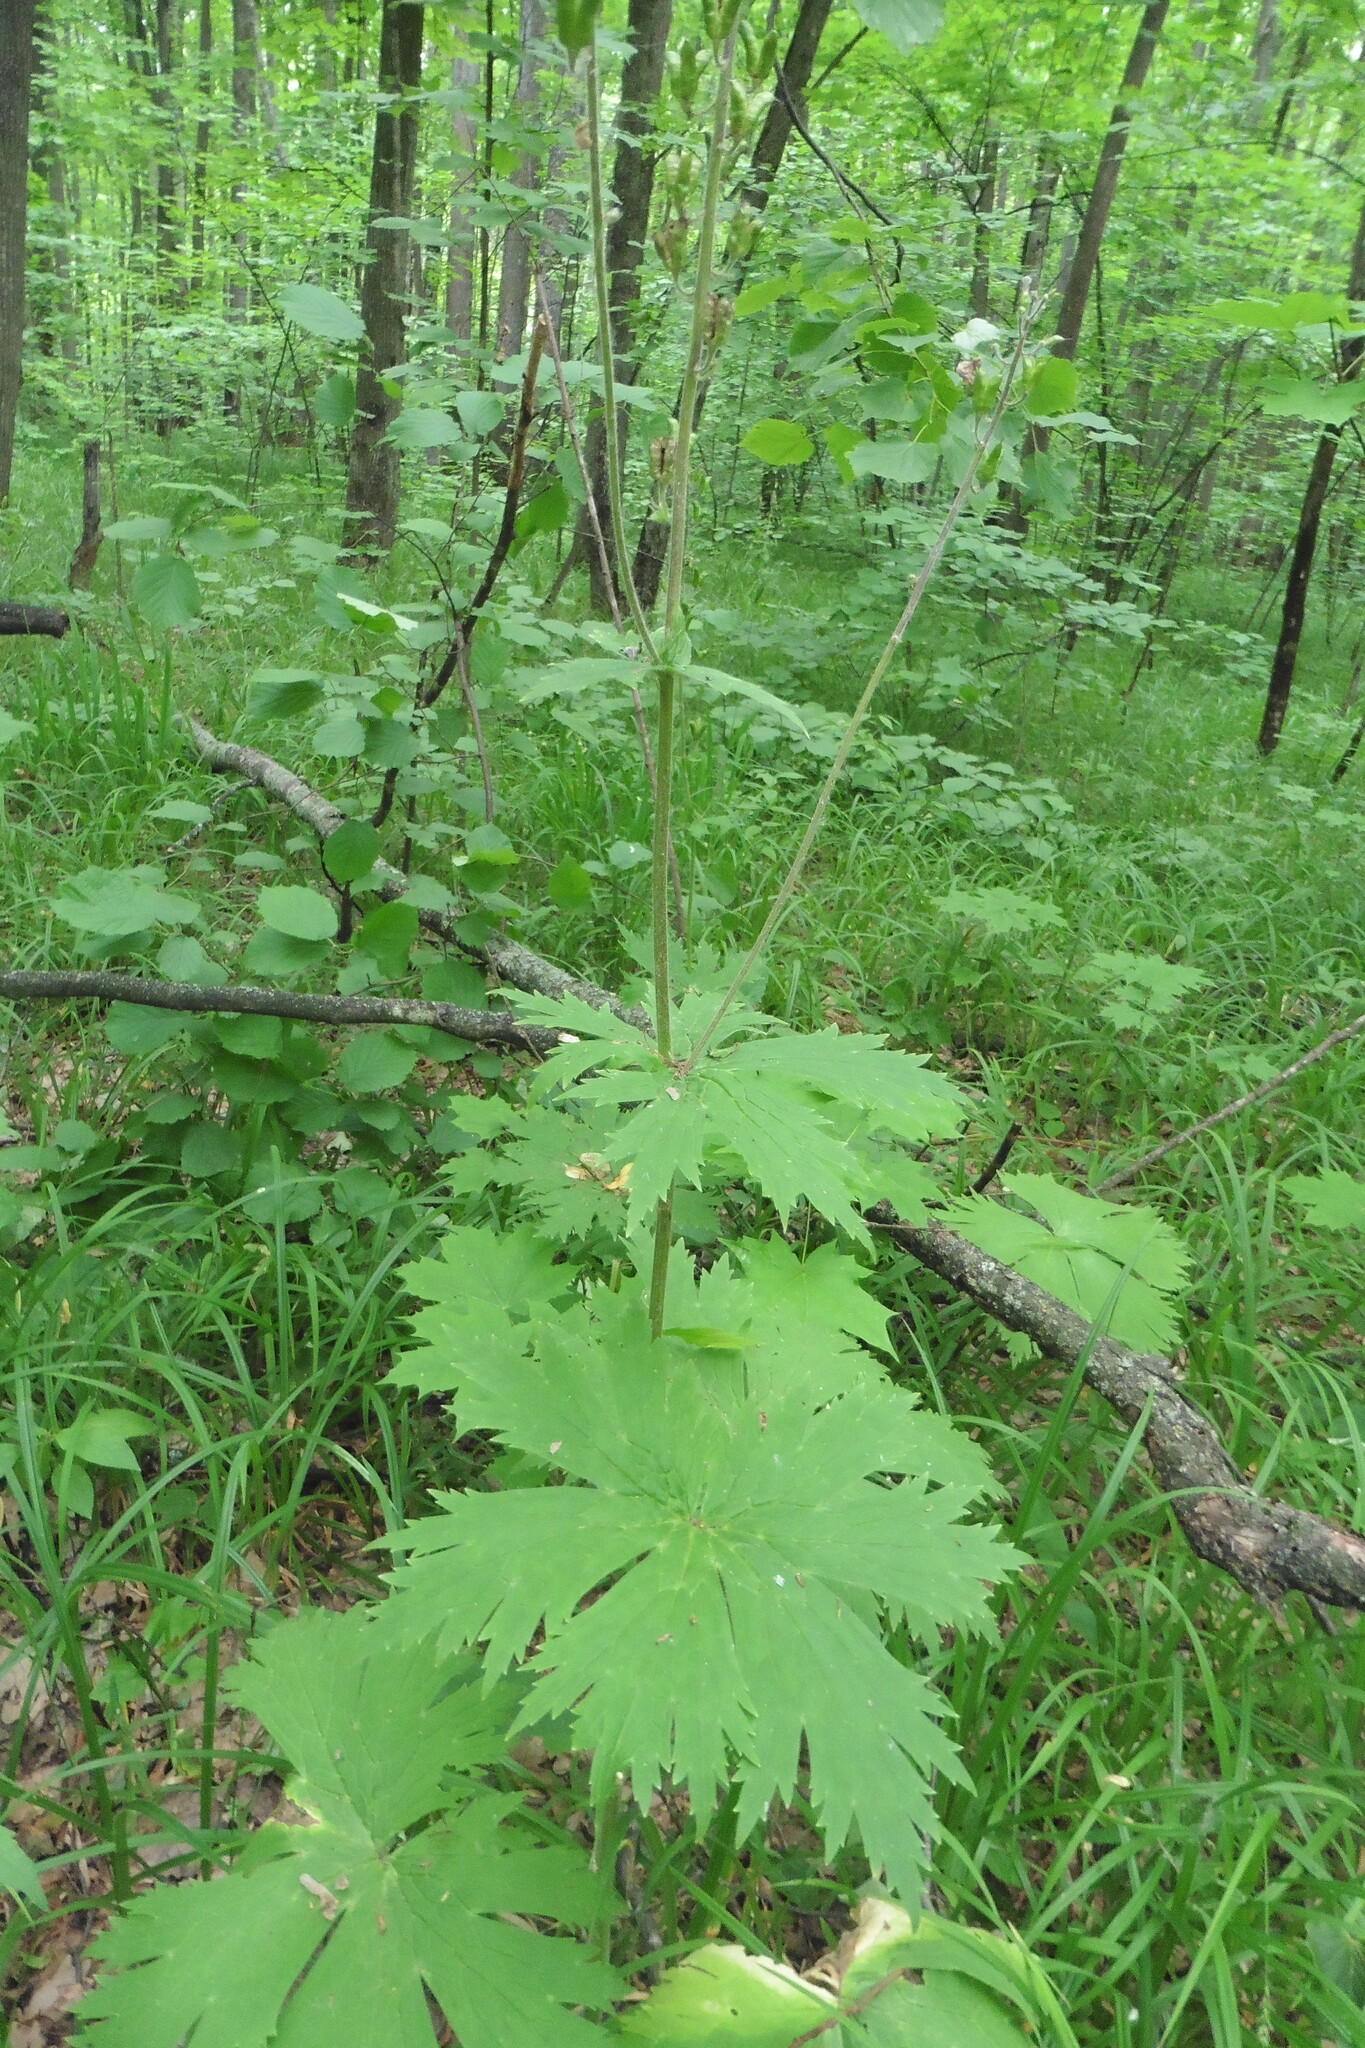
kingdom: Plantae
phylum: Tracheophyta
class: Magnoliopsida
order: Ranunculales
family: Ranunculaceae
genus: Aconitum
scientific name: Aconitum septentrionale
